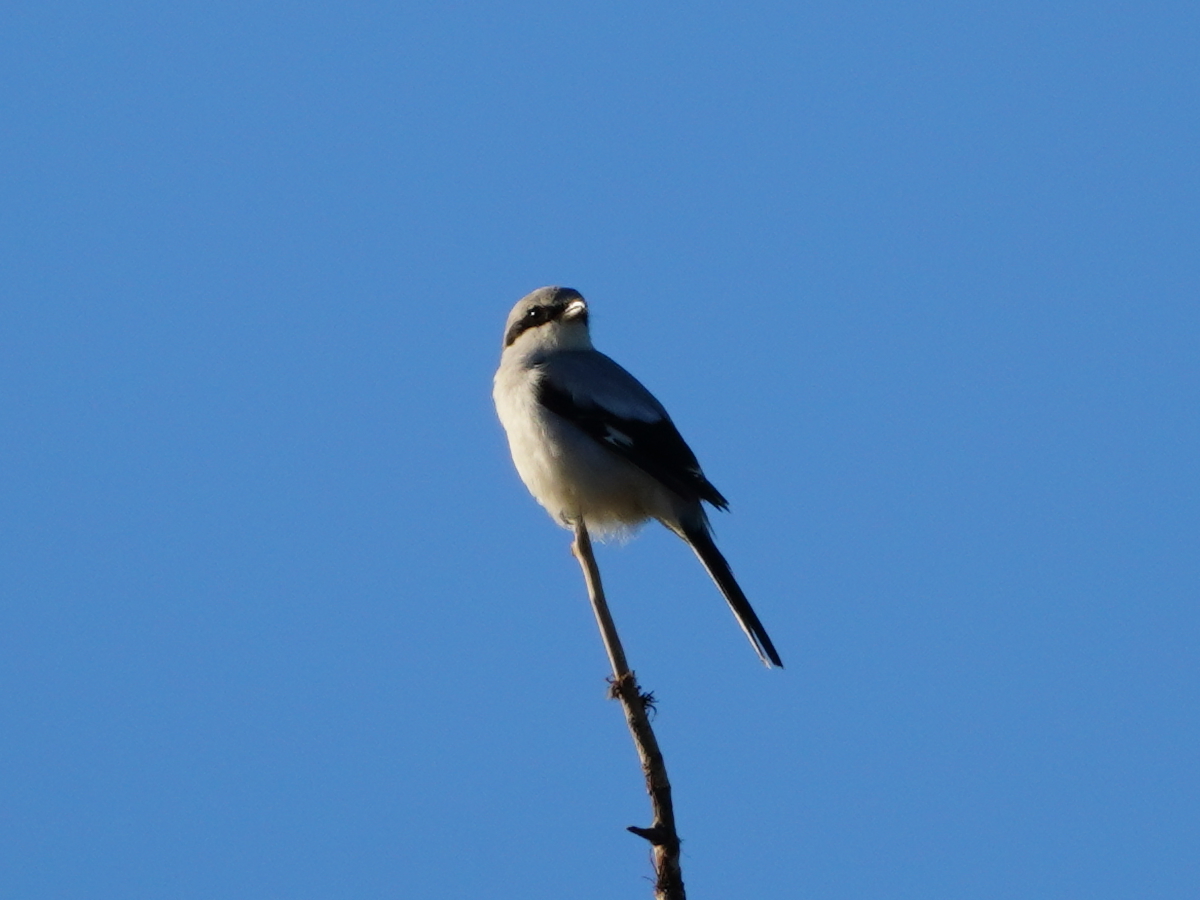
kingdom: Animalia
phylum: Chordata
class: Aves
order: Passeriformes
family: Laniidae
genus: Lanius
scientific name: Lanius excubitor
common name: Great grey shrike
